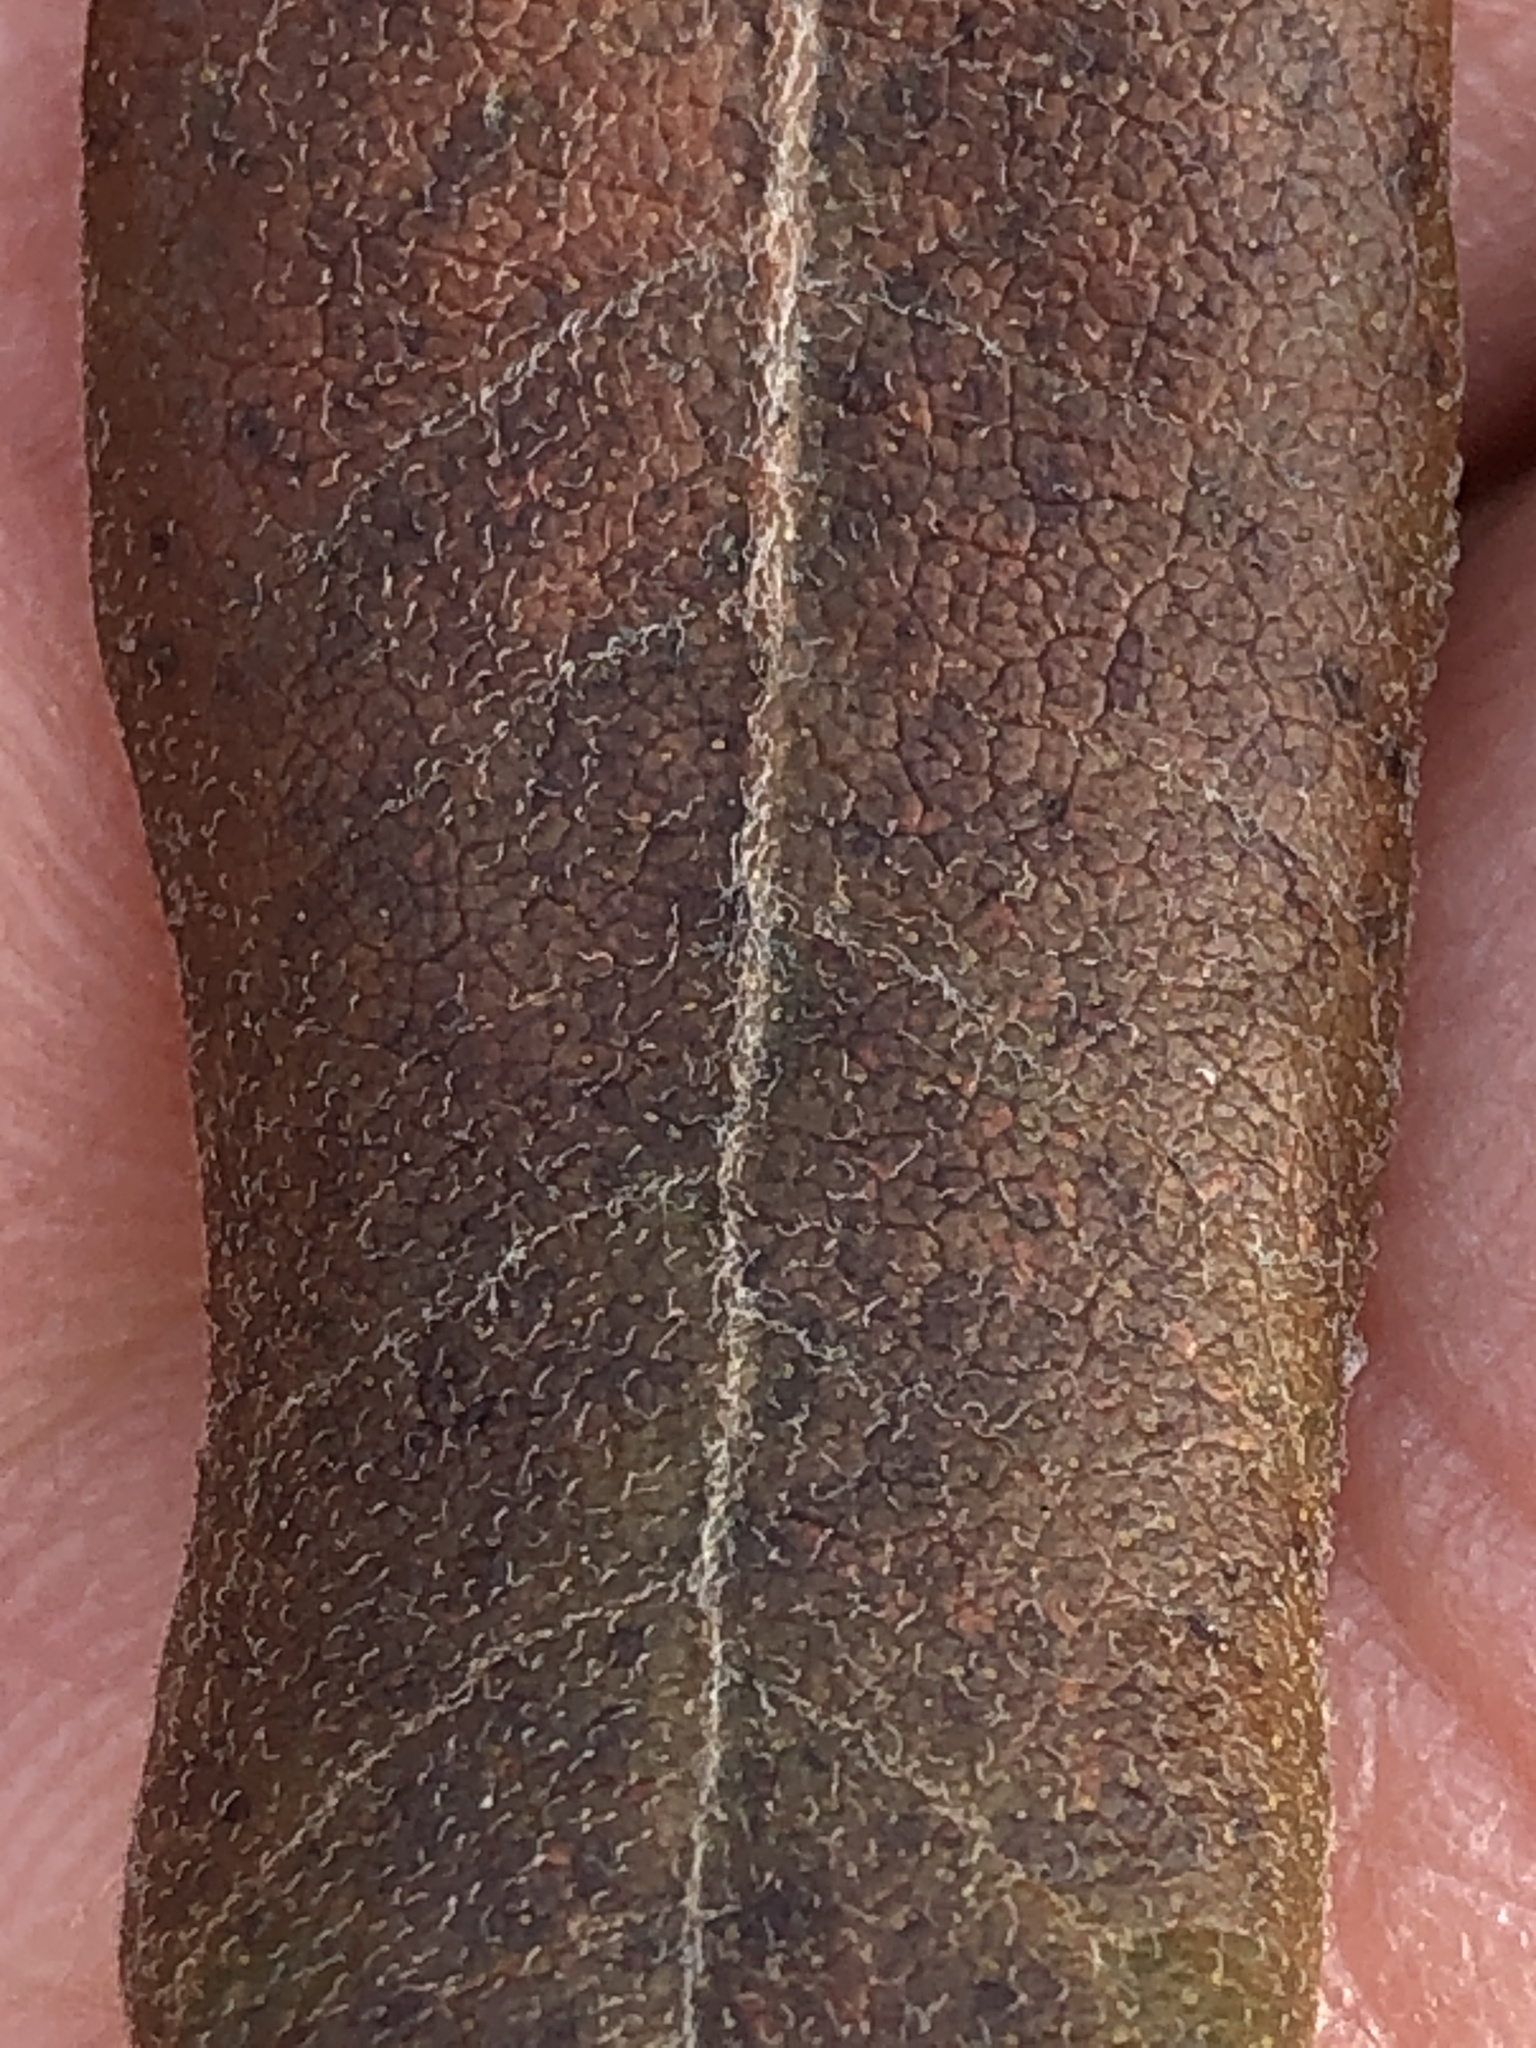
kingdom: Plantae
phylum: Tracheophyta
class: Magnoliopsida
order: Fagales
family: Myricaceae
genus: Morella
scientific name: Morella pensylvanica
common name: Northern bayberry
